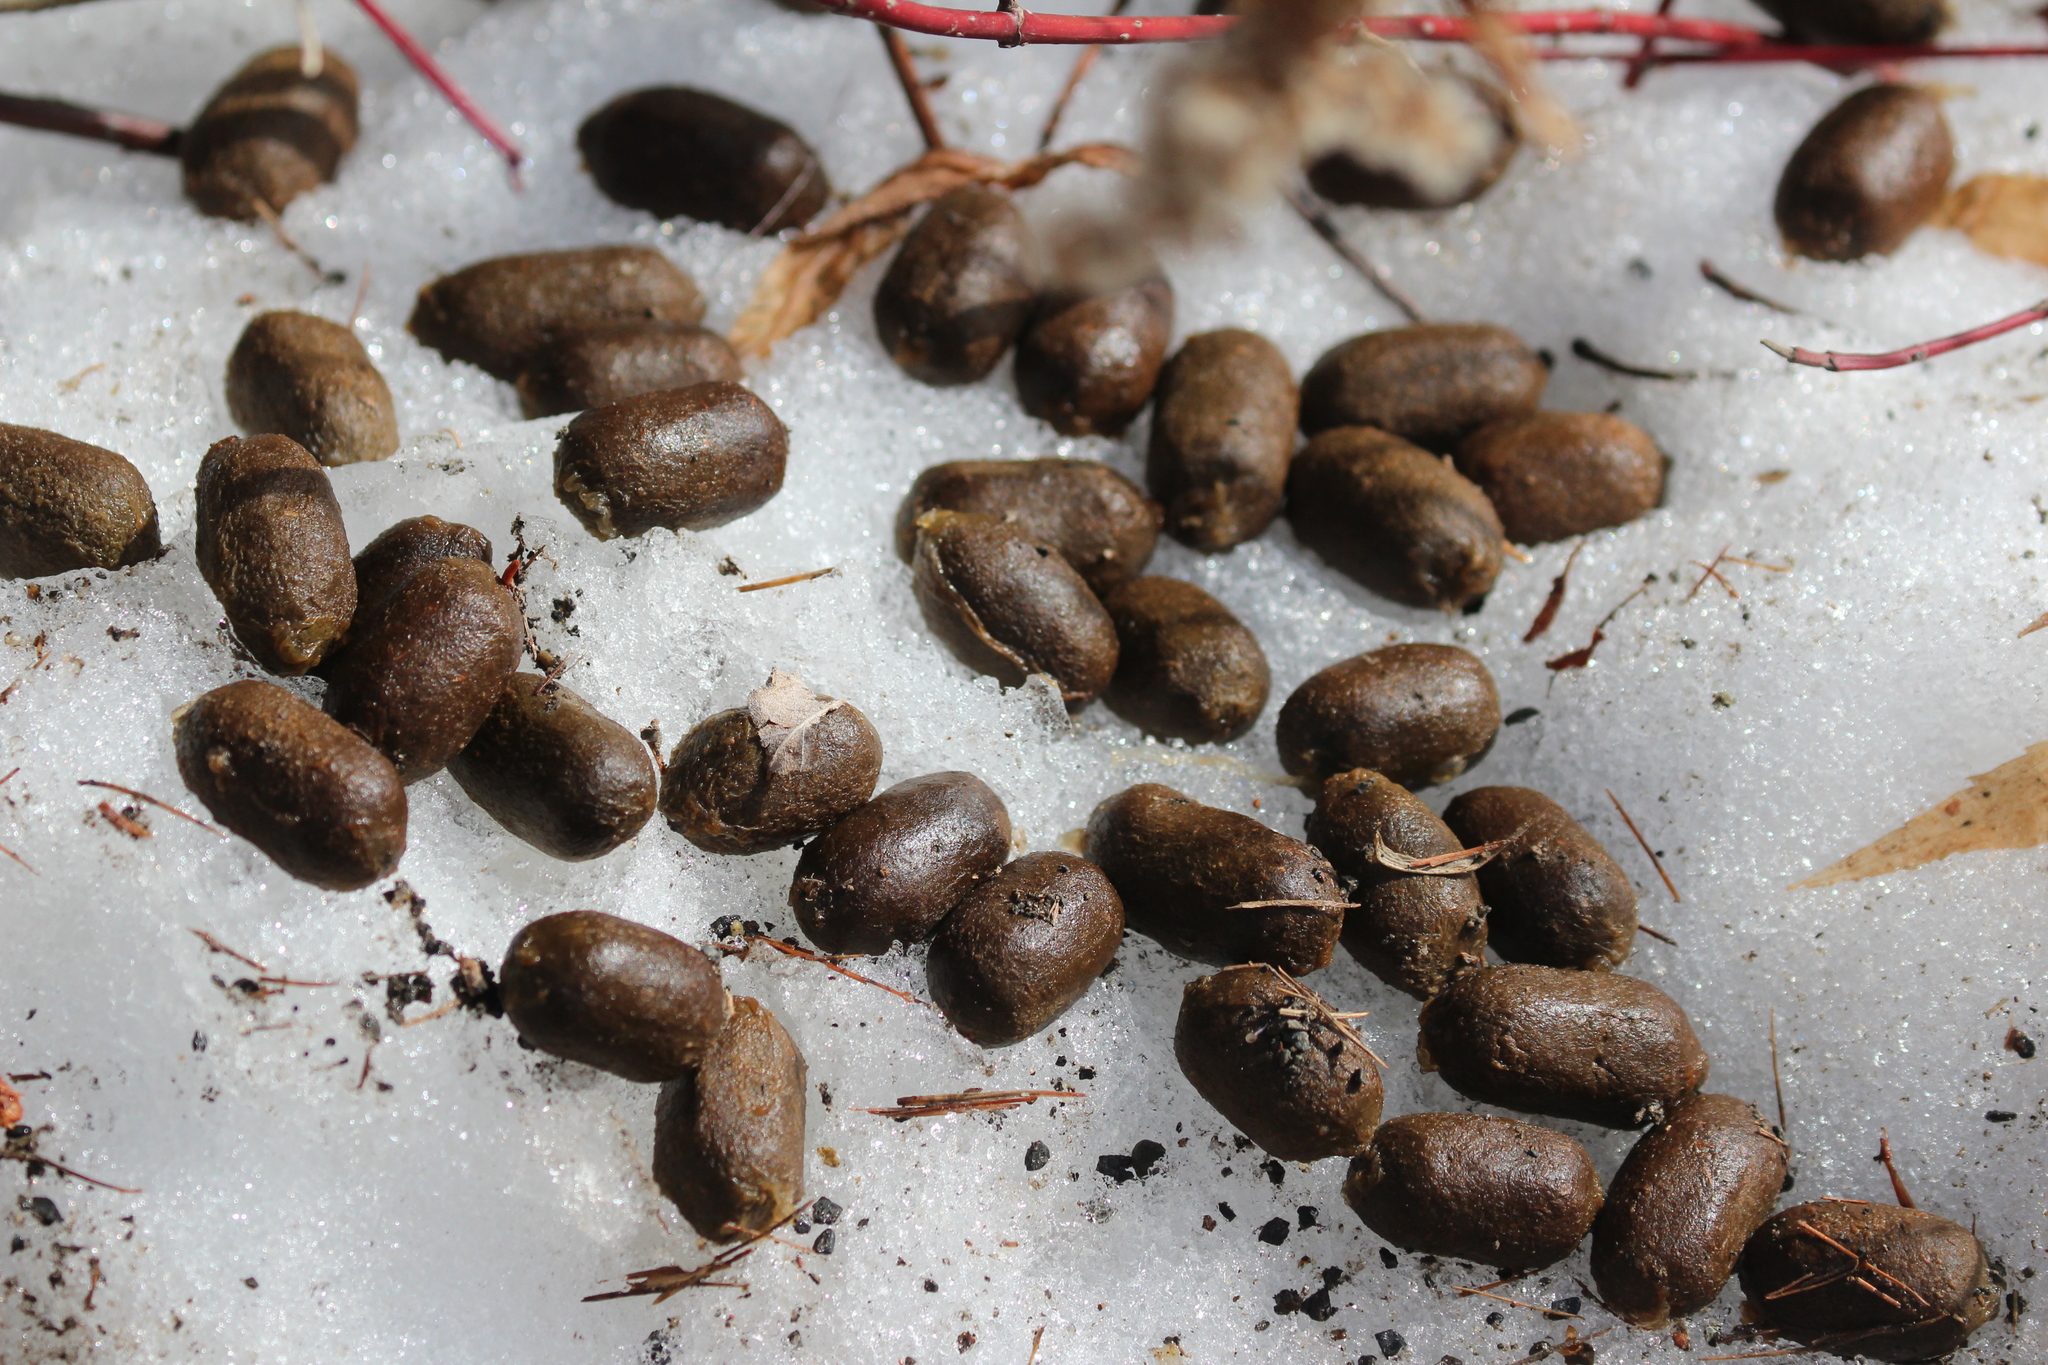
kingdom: Animalia
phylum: Chordata
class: Mammalia
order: Artiodactyla
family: Cervidae
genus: Alces
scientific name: Alces alces
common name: Moose
